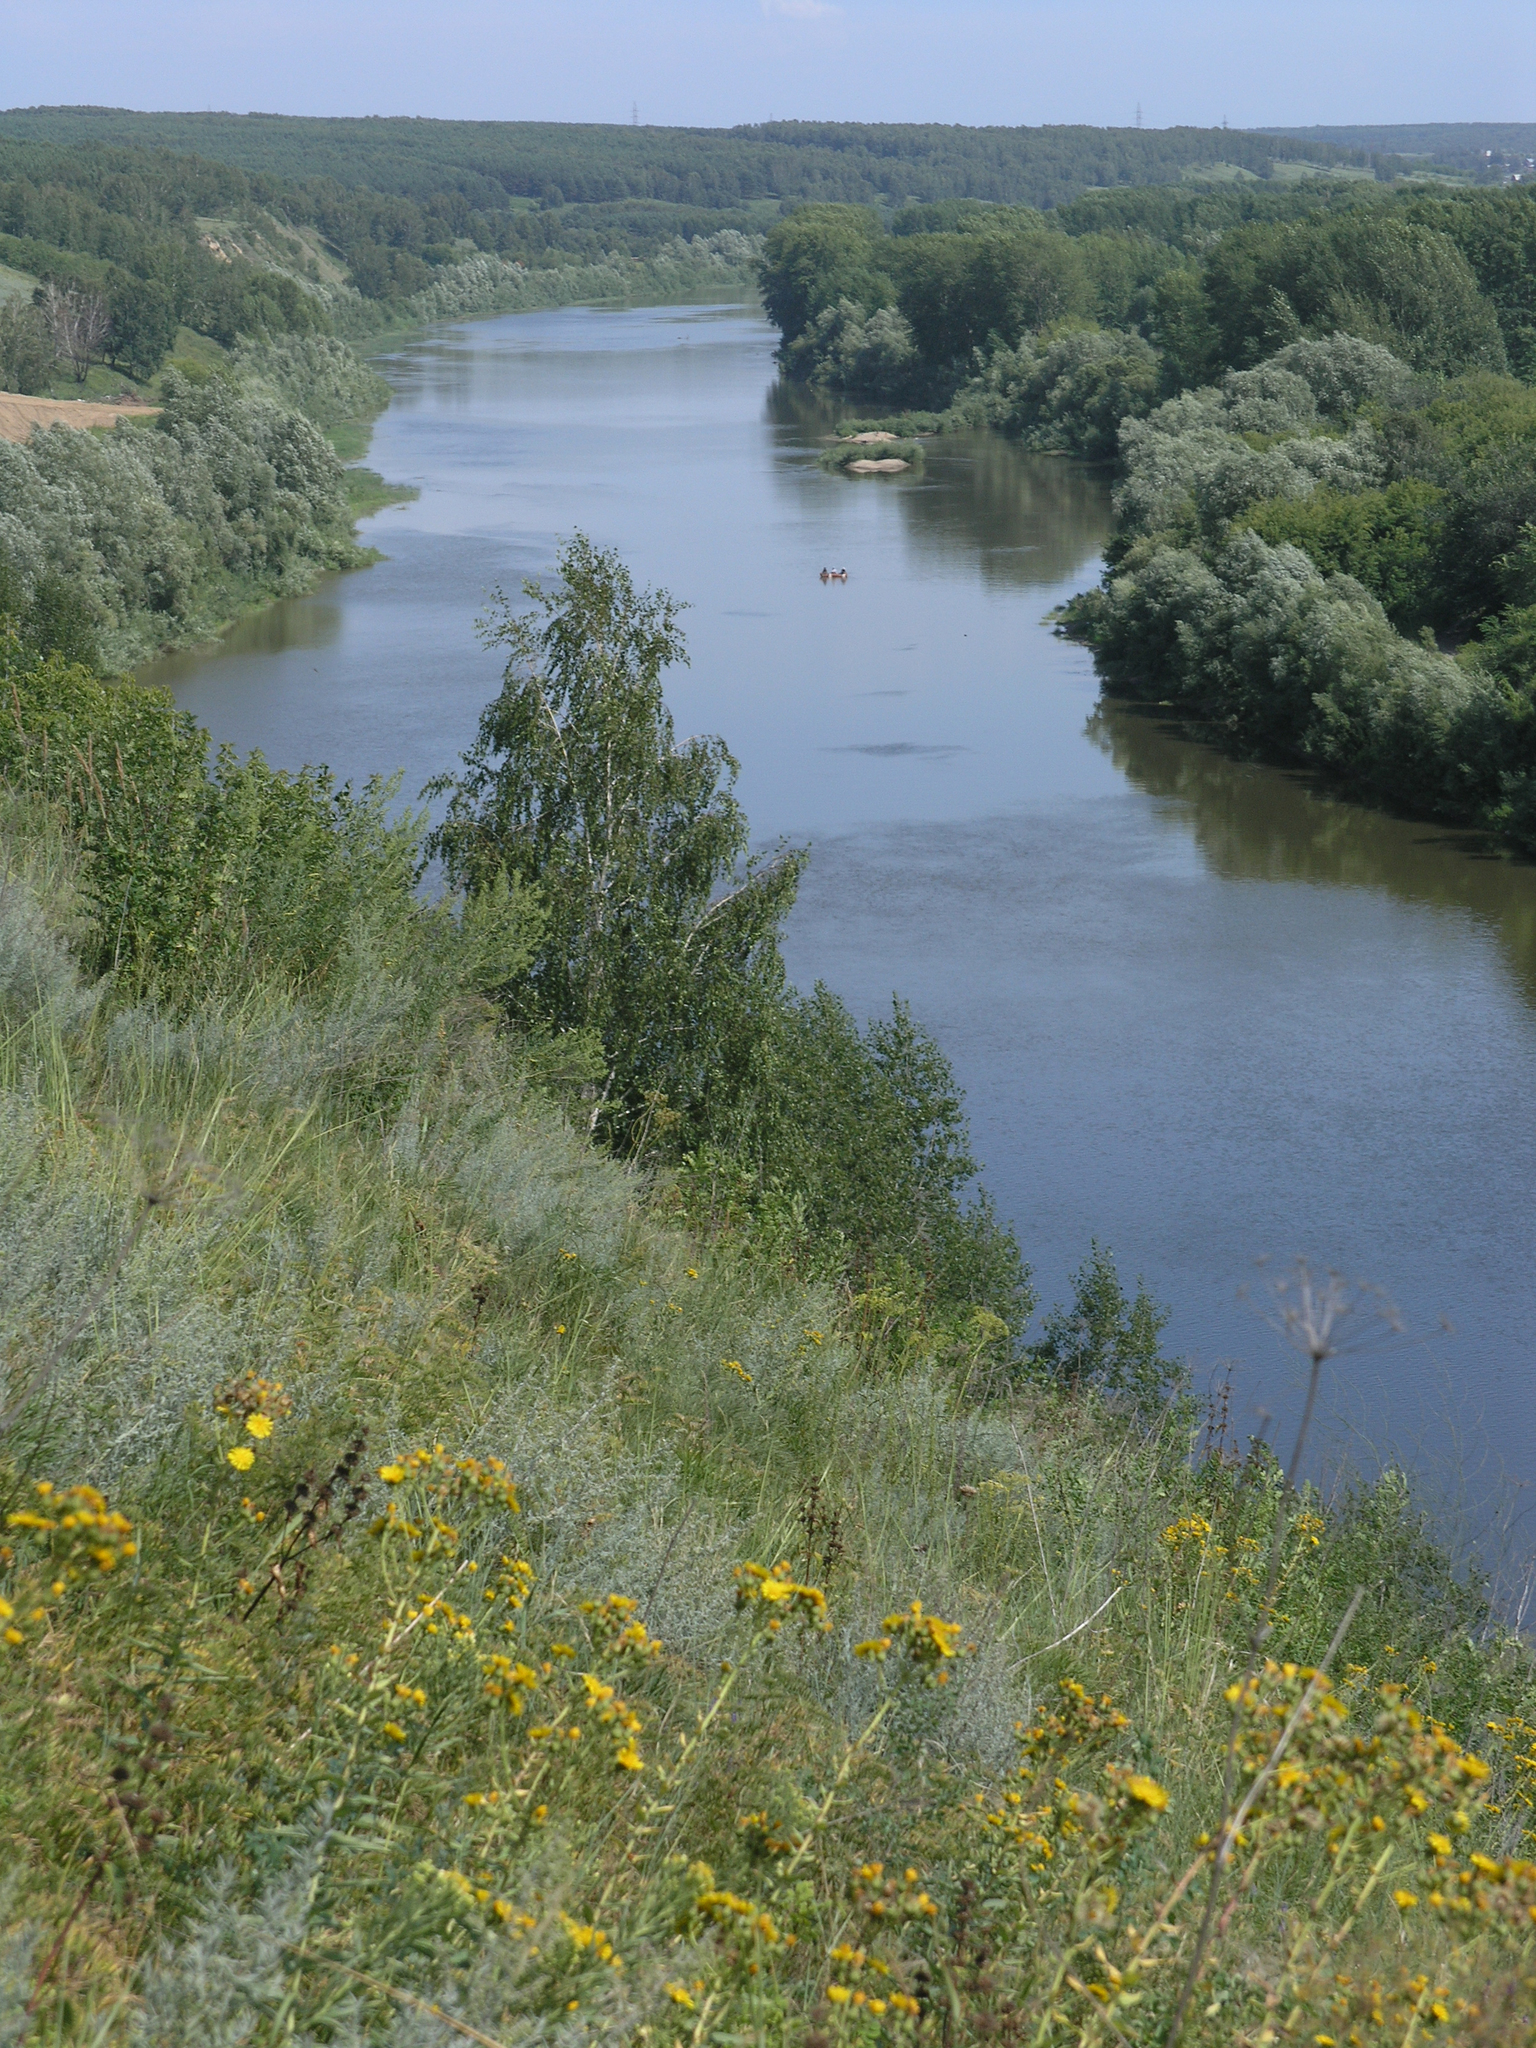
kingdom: Plantae
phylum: Tracheophyta
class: Magnoliopsida
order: Fagales
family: Betulaceae
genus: Betula
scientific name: Betula pendula
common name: Silver birch
